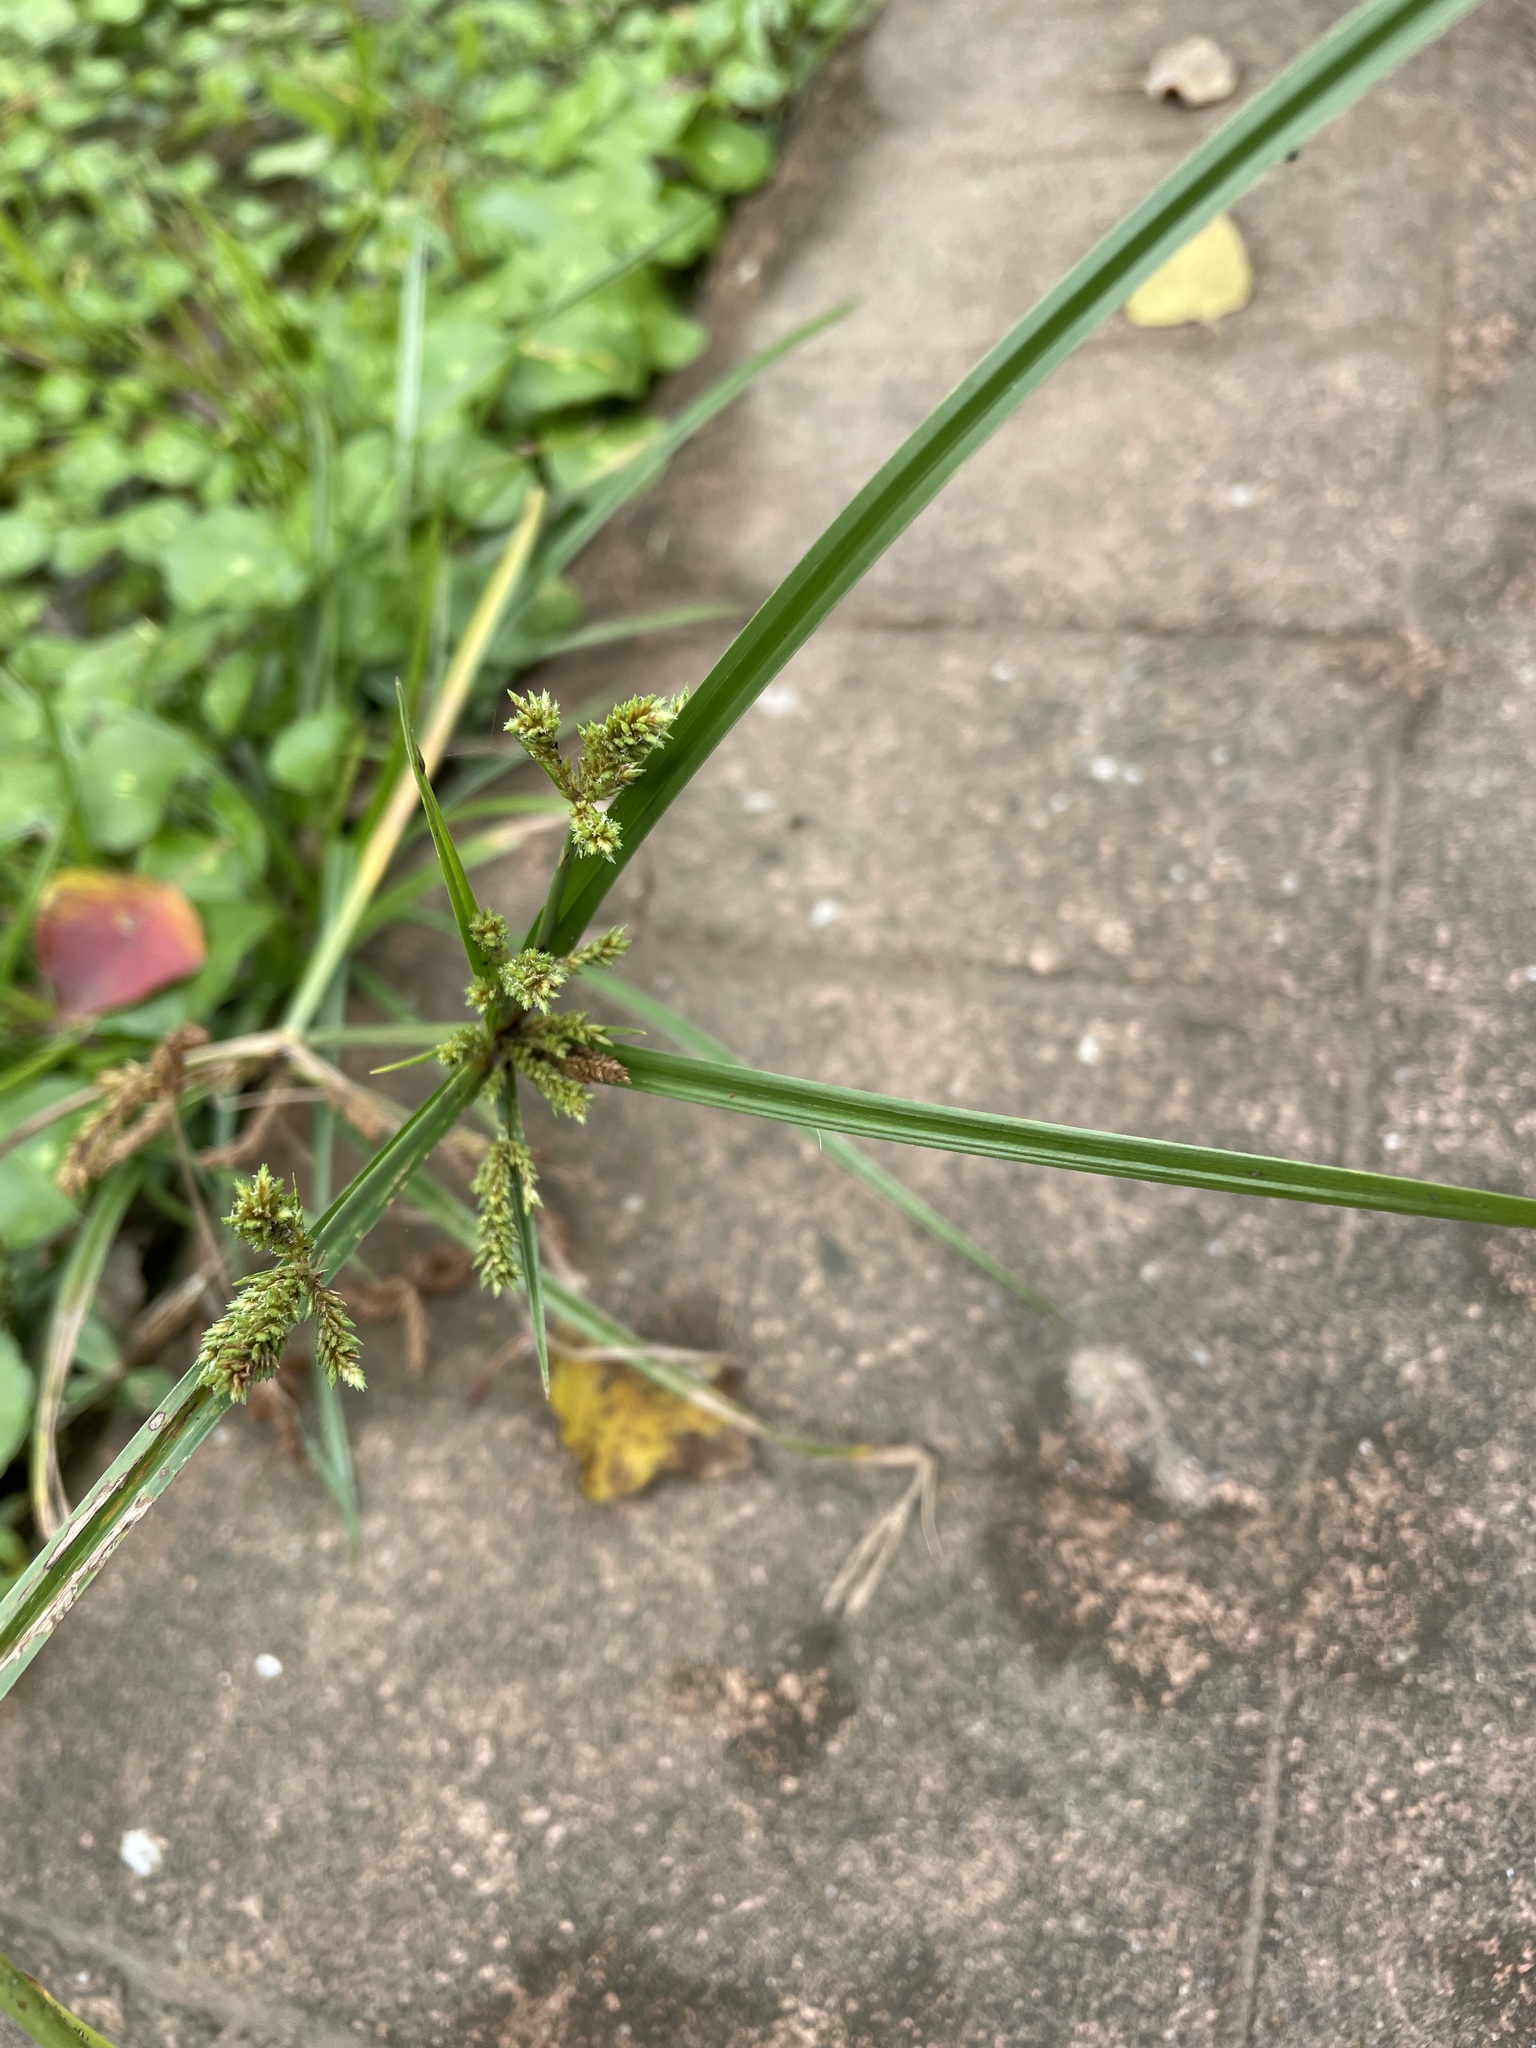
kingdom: Plantae
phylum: Tracheophyta
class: Liliopsida
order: Poales
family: Cyperaceae
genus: Cyperus
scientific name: Cyperus imbricatus
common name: Shingle flatsedge
